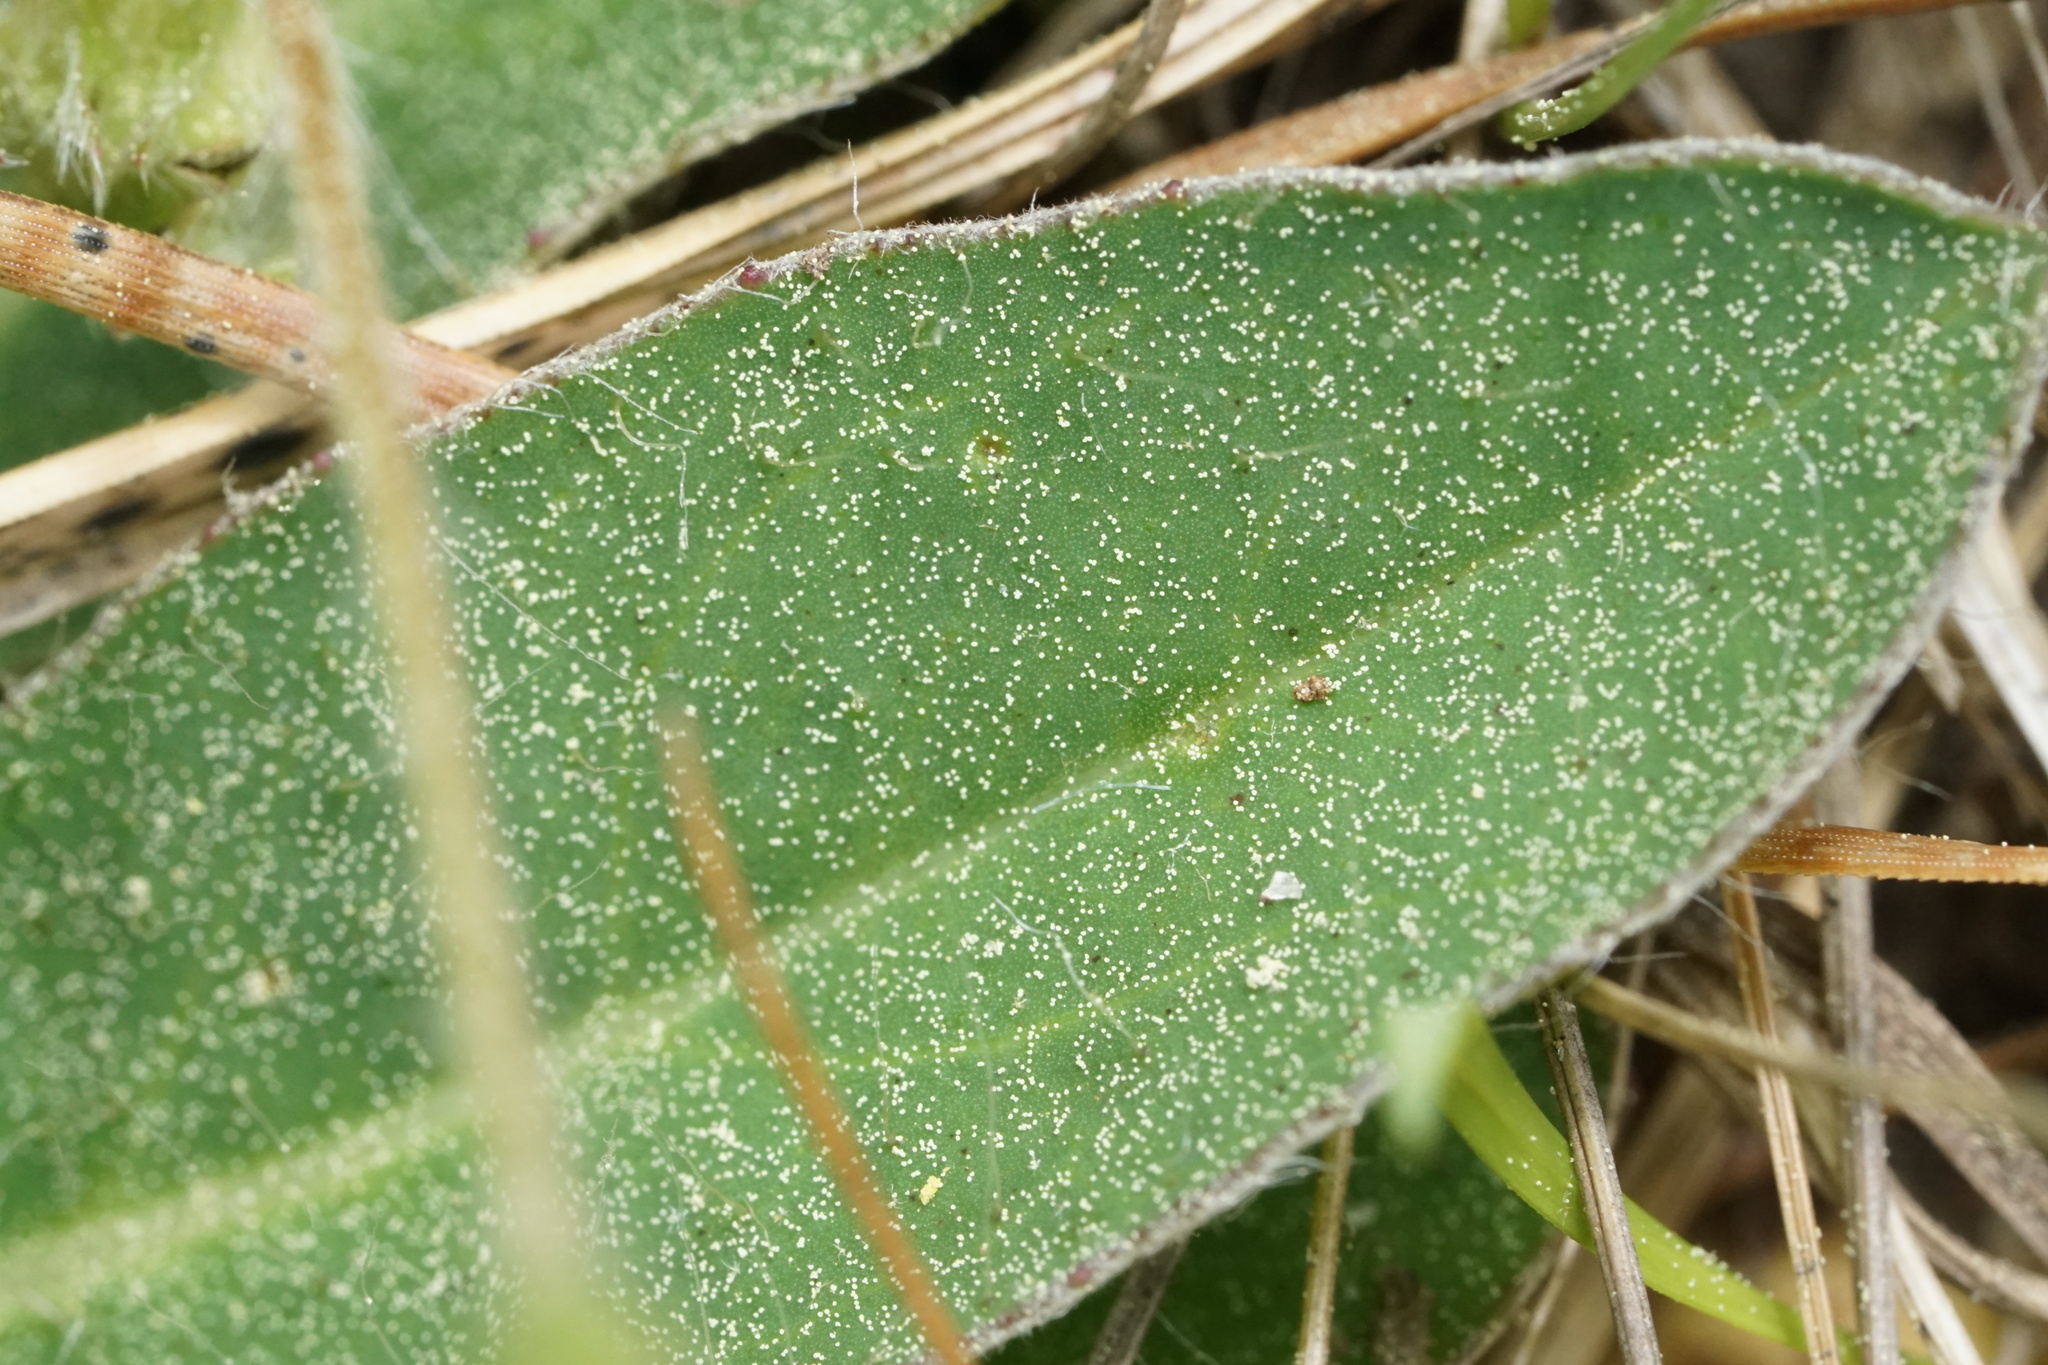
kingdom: Plantae
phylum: Tracheophyta
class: Magnoliopsida
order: Asterales
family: Asteraceae
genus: Pilosella
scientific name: Pilosella officinarum
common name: Mouse-ear hawkweed
